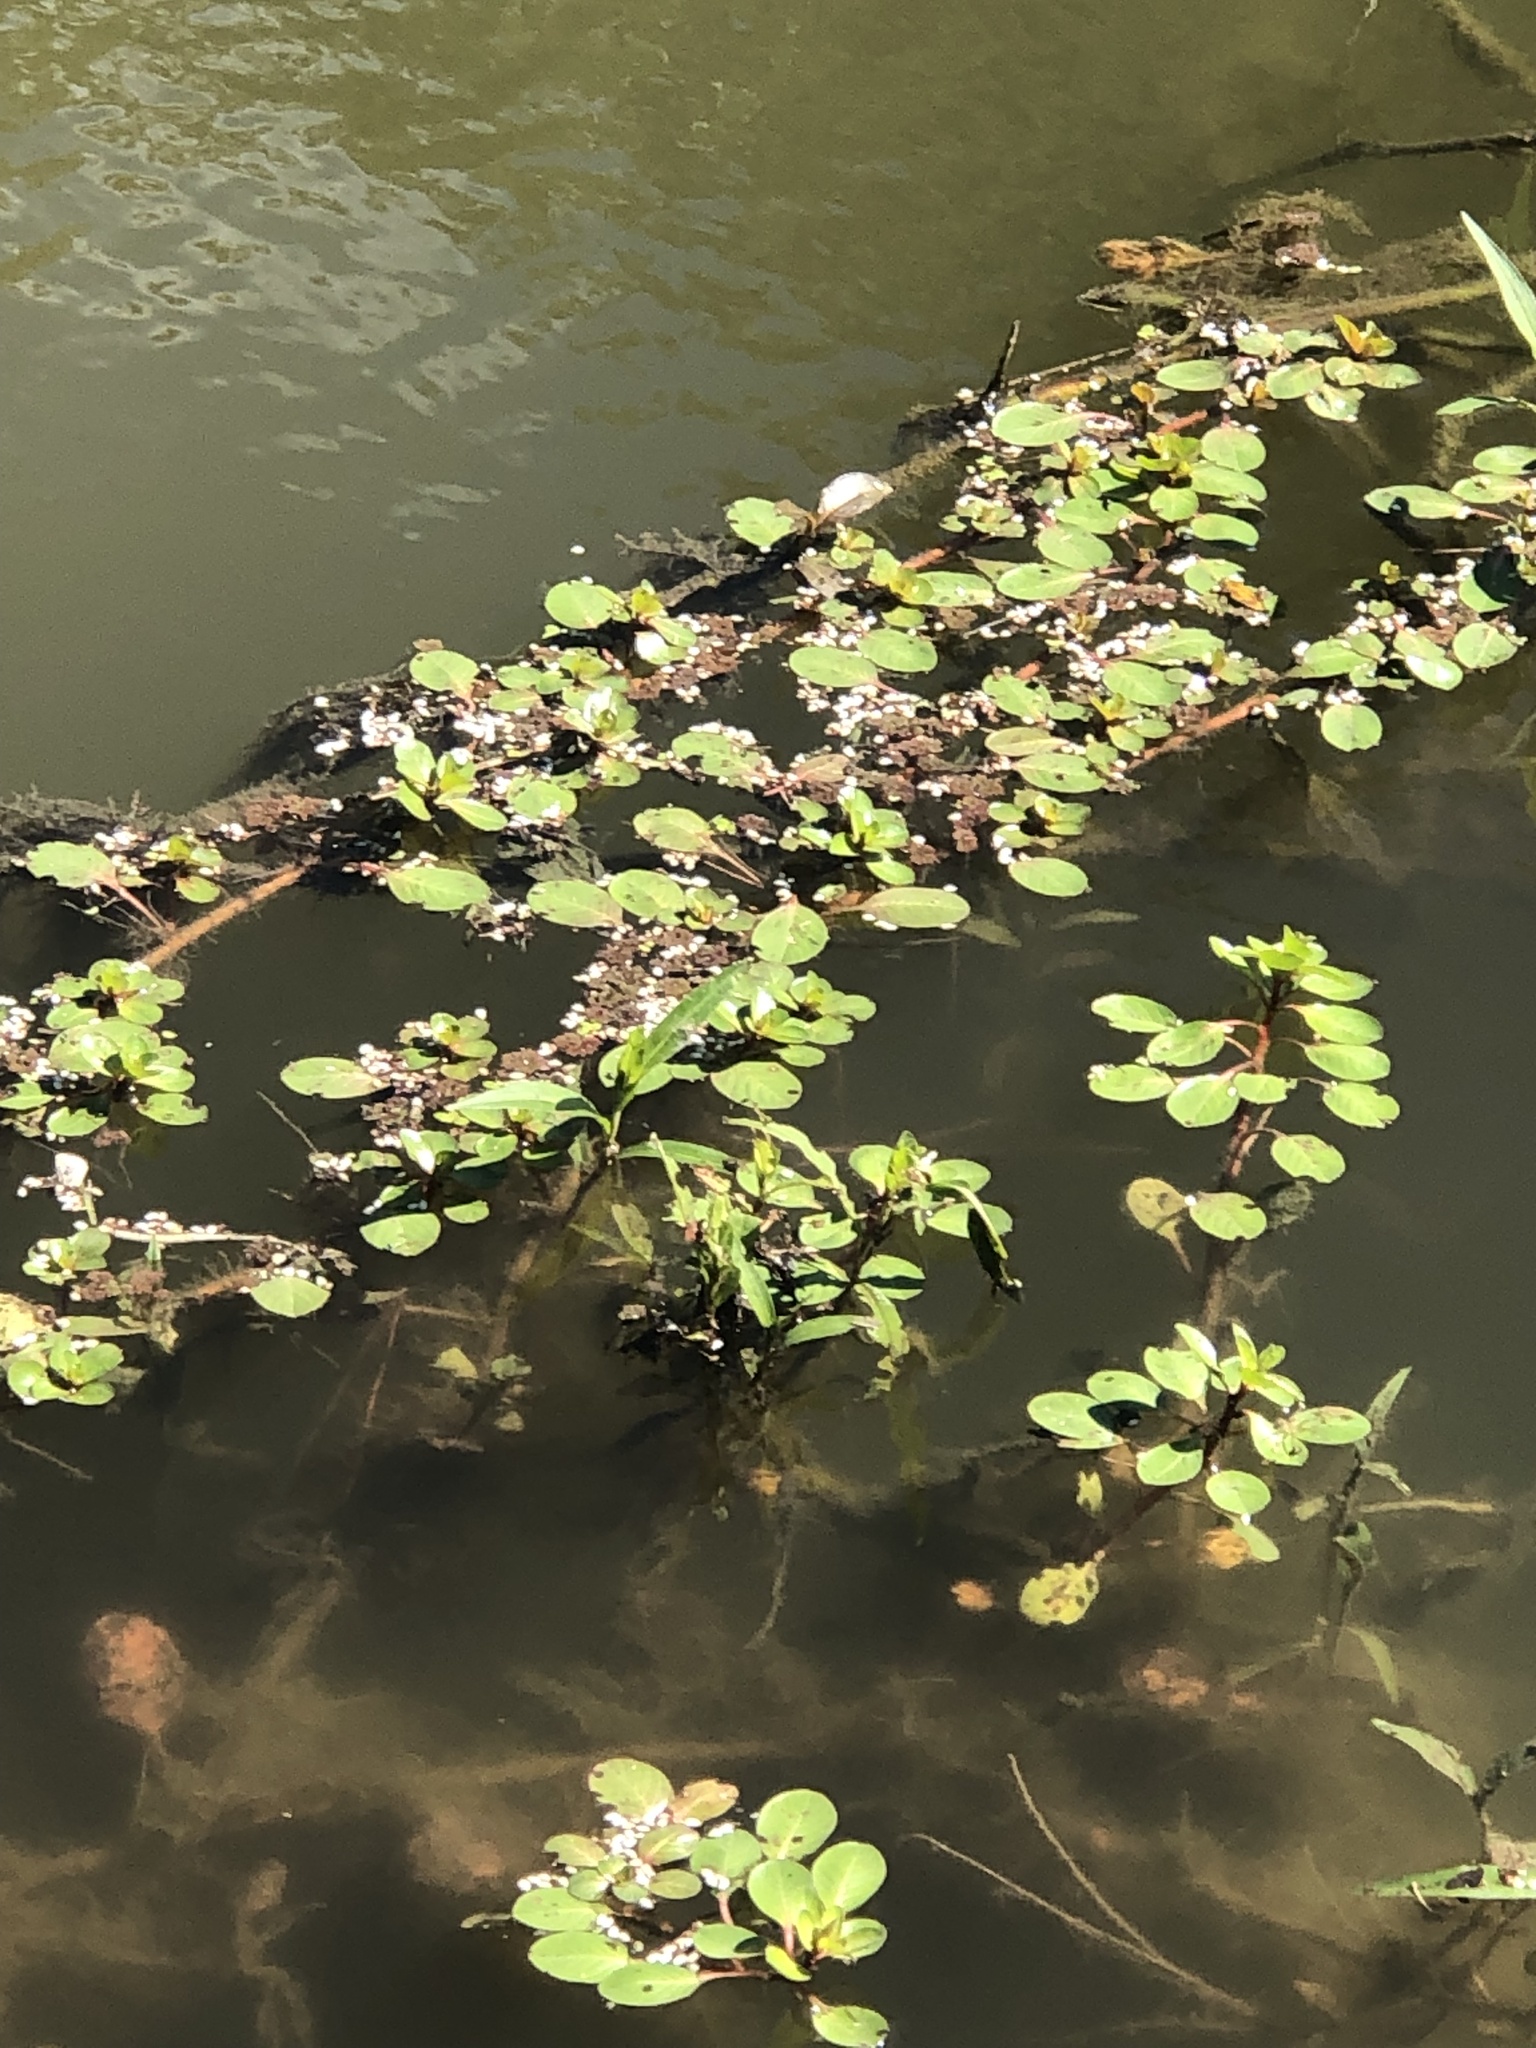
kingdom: Plantae
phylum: Tracheophyta
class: Magnoliopsida
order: Myrtales
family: Onagraceae
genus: Ludwigia
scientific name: Ludwigia peploides
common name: Floating primrose-willow
